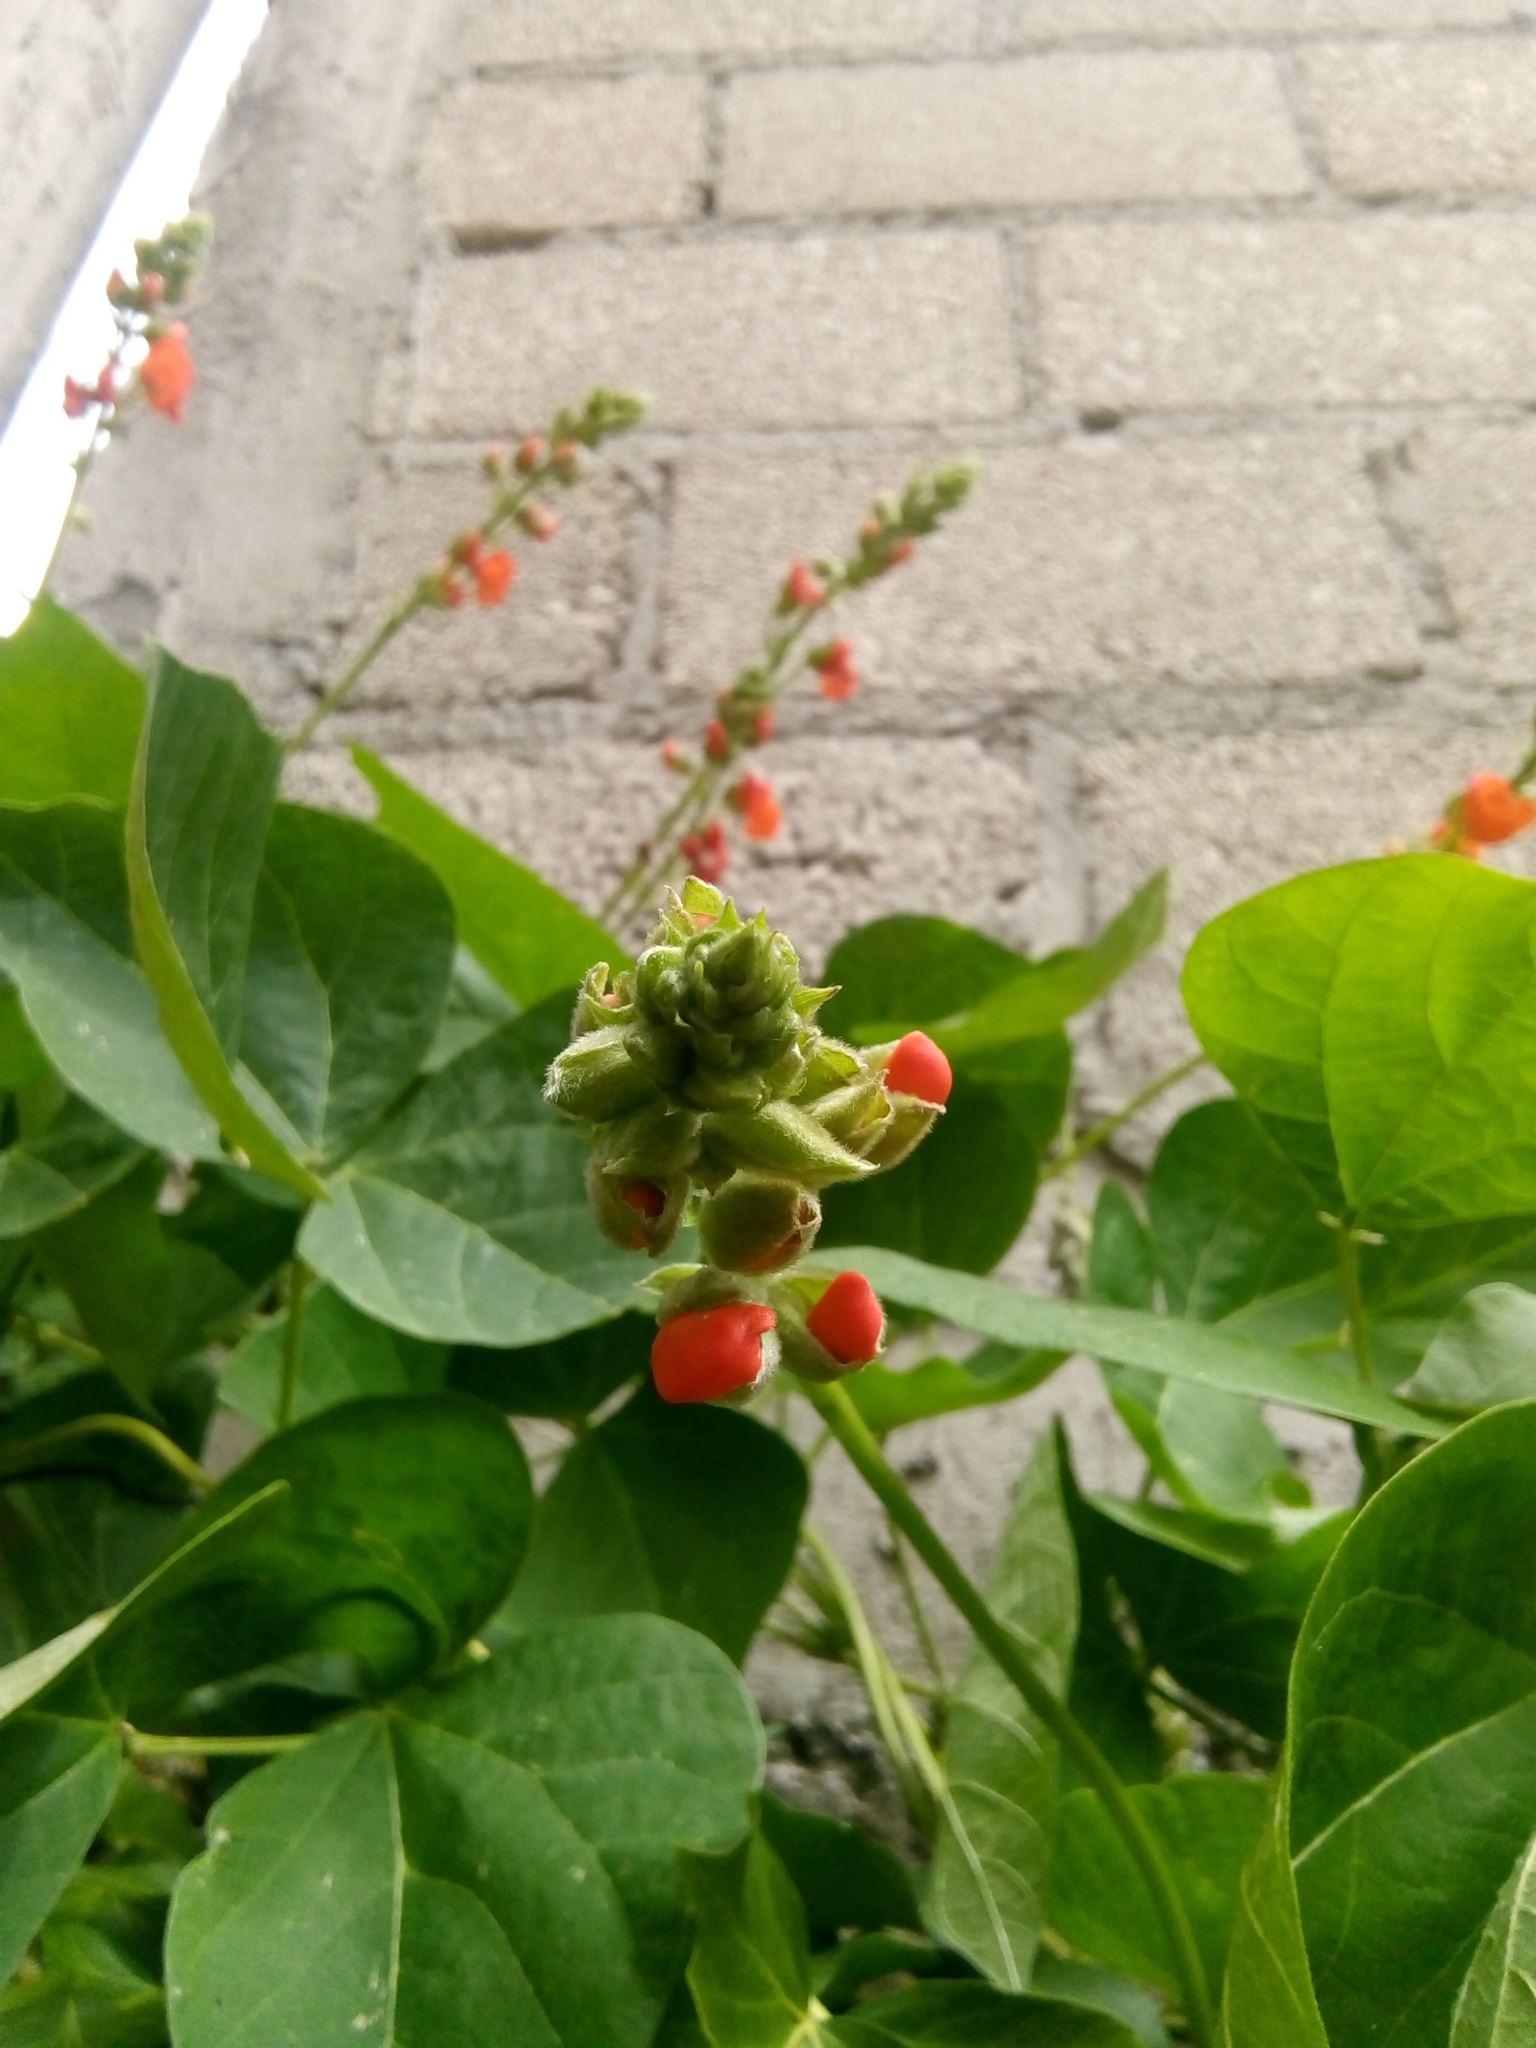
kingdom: Plantae
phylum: Tracheophyta
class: Magnoliopsida
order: Fabales
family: Fabaceae
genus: Phaseolus
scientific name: Phaseolus coccineus
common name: Runner bean
